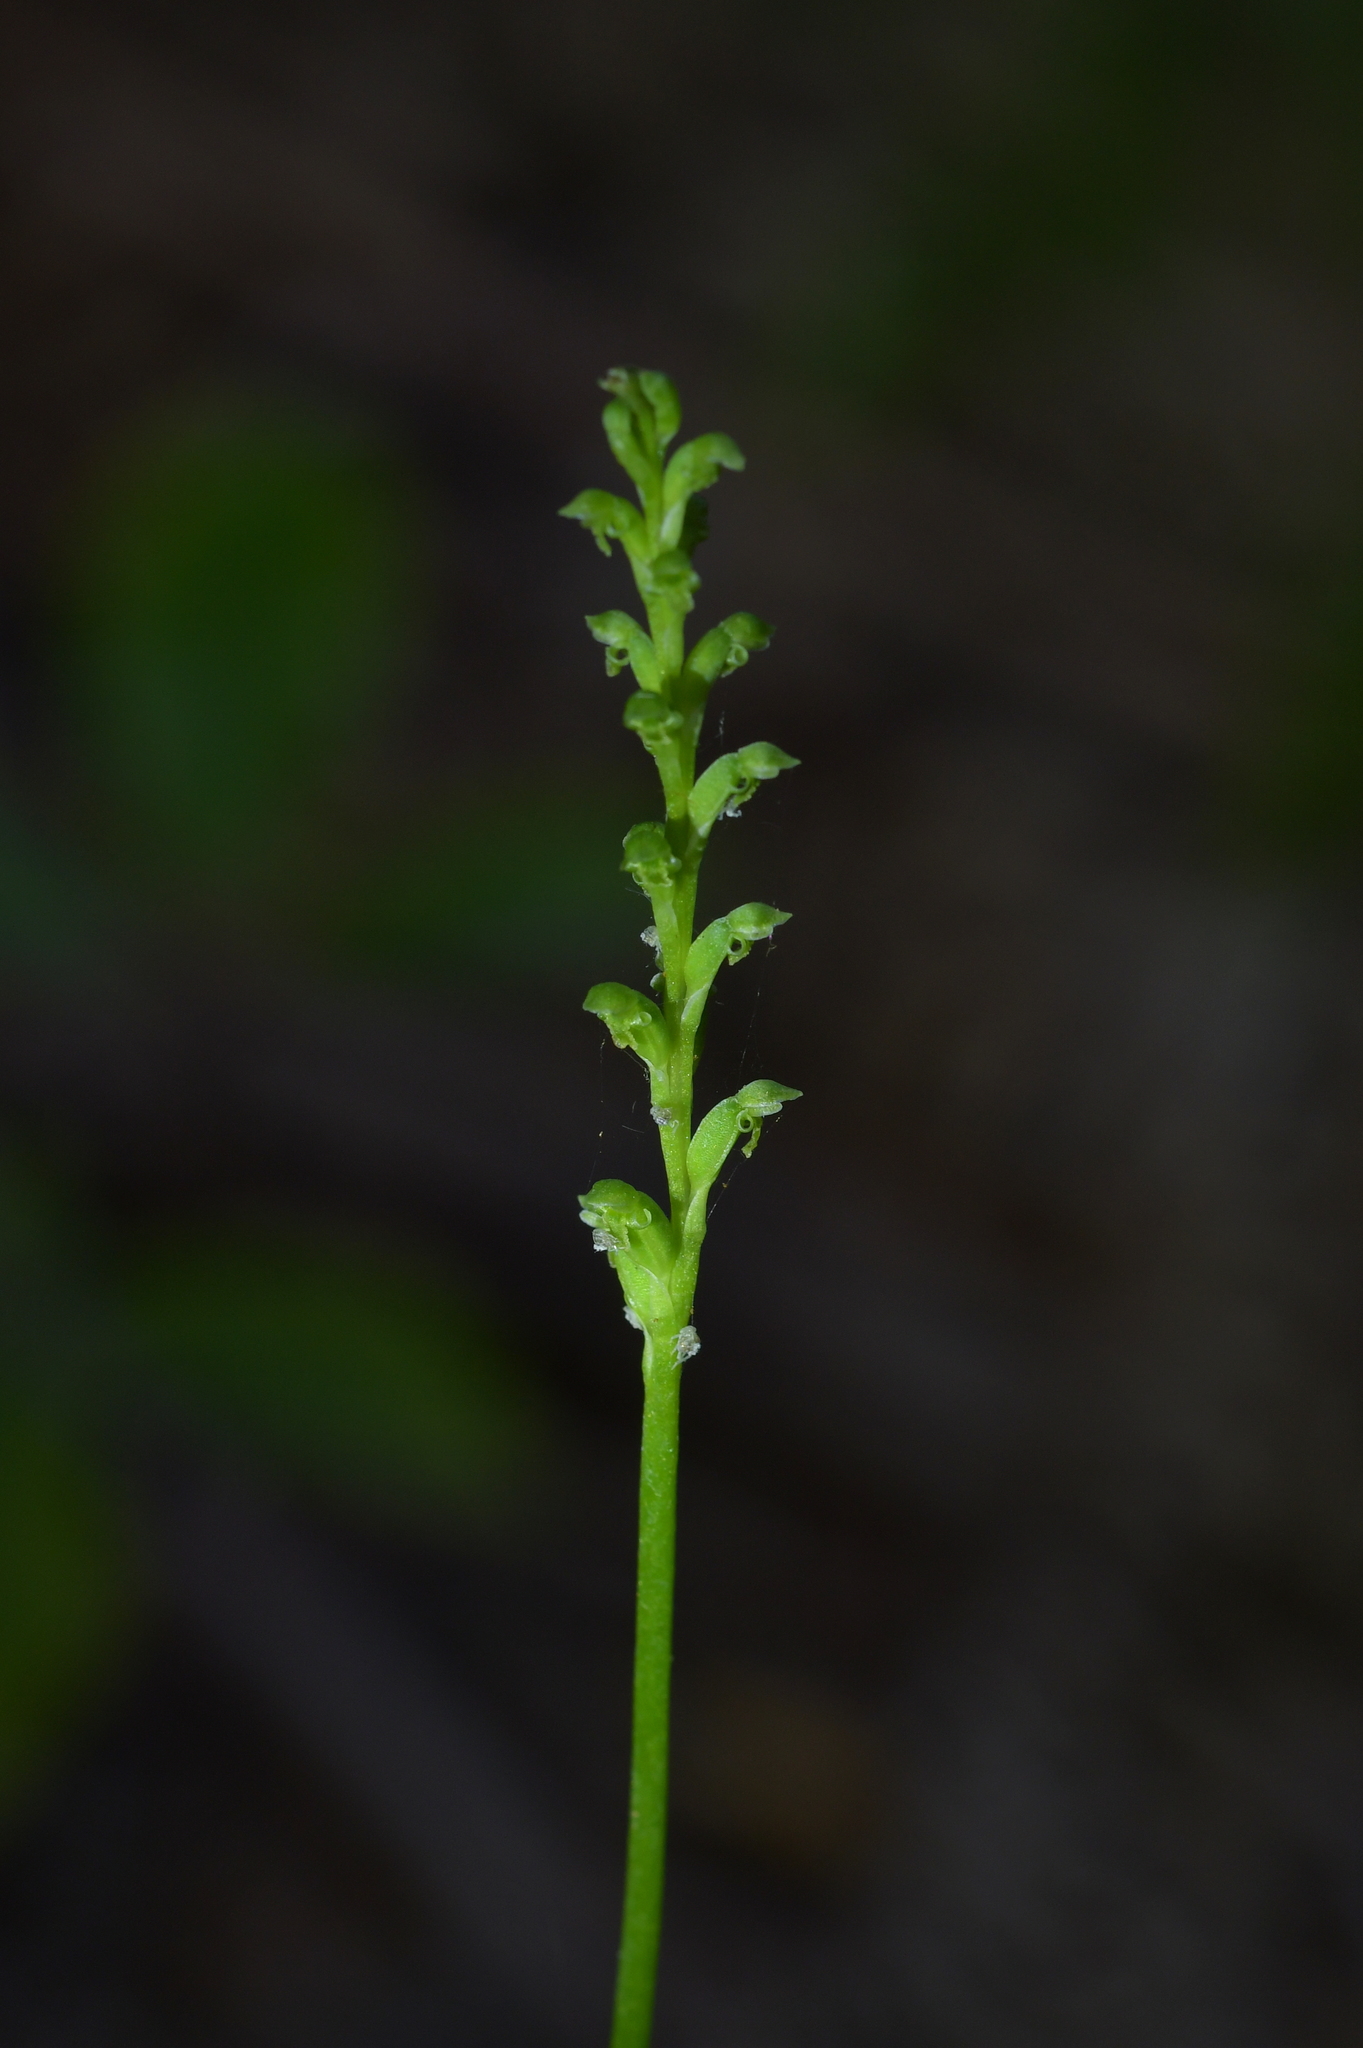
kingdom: Plantae
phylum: Tracheophyta
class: Liliopsida
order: Asparagales
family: Orchidaceae
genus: Microtis
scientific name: Microtis unifolia
